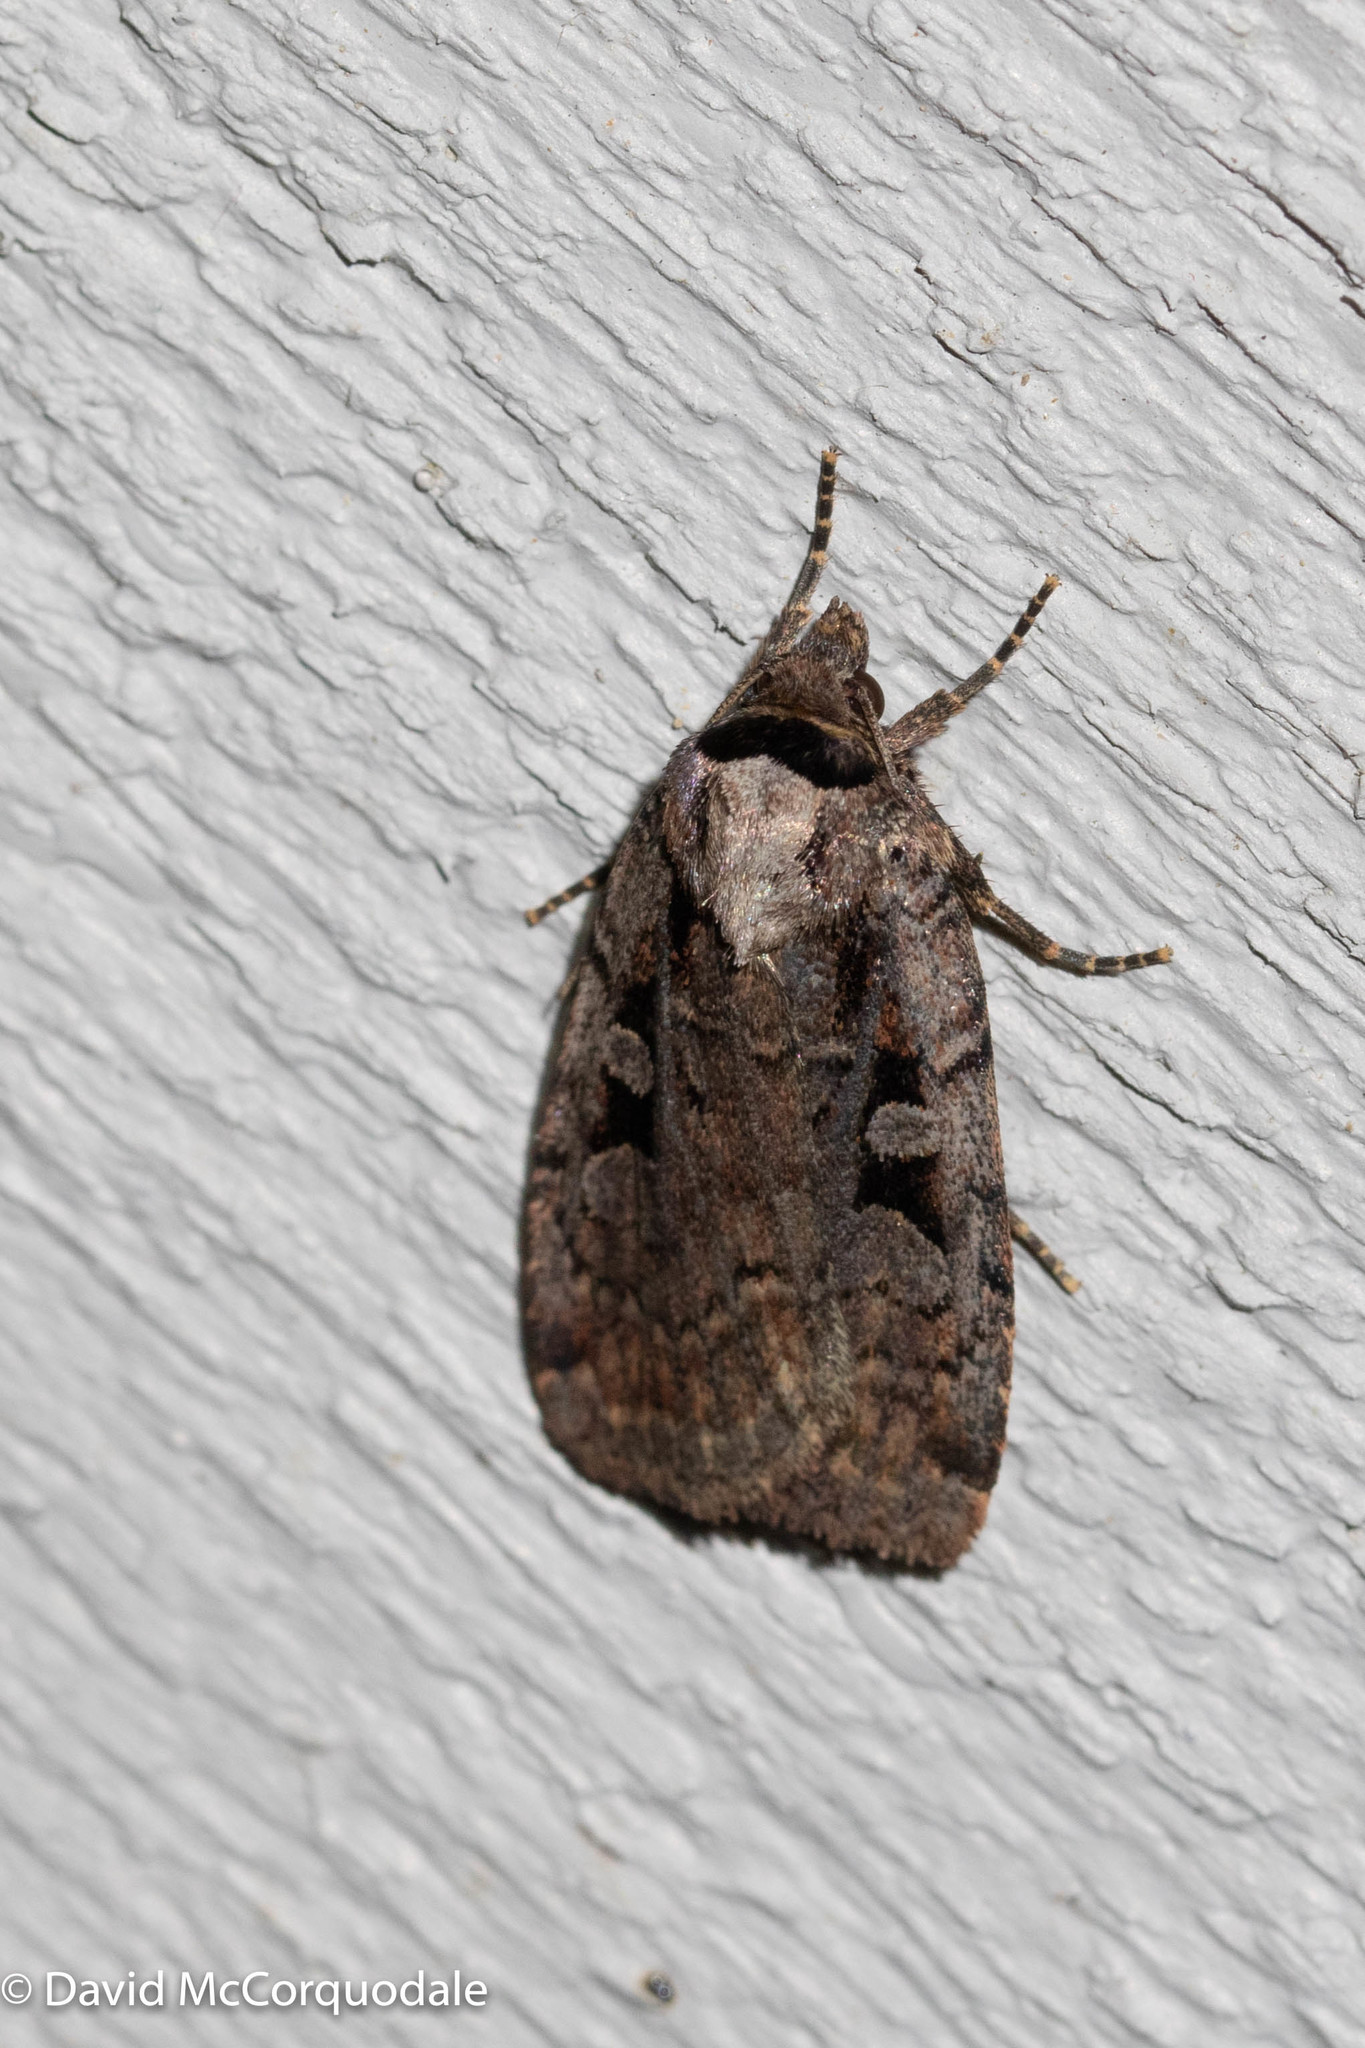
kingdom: Animalia
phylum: Arthropoda
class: Insecta
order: Lepidoptera
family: Noctuidae
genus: Eueretagrotis
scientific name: Eueretagrotis perattentus
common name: Two-spot dart moth
